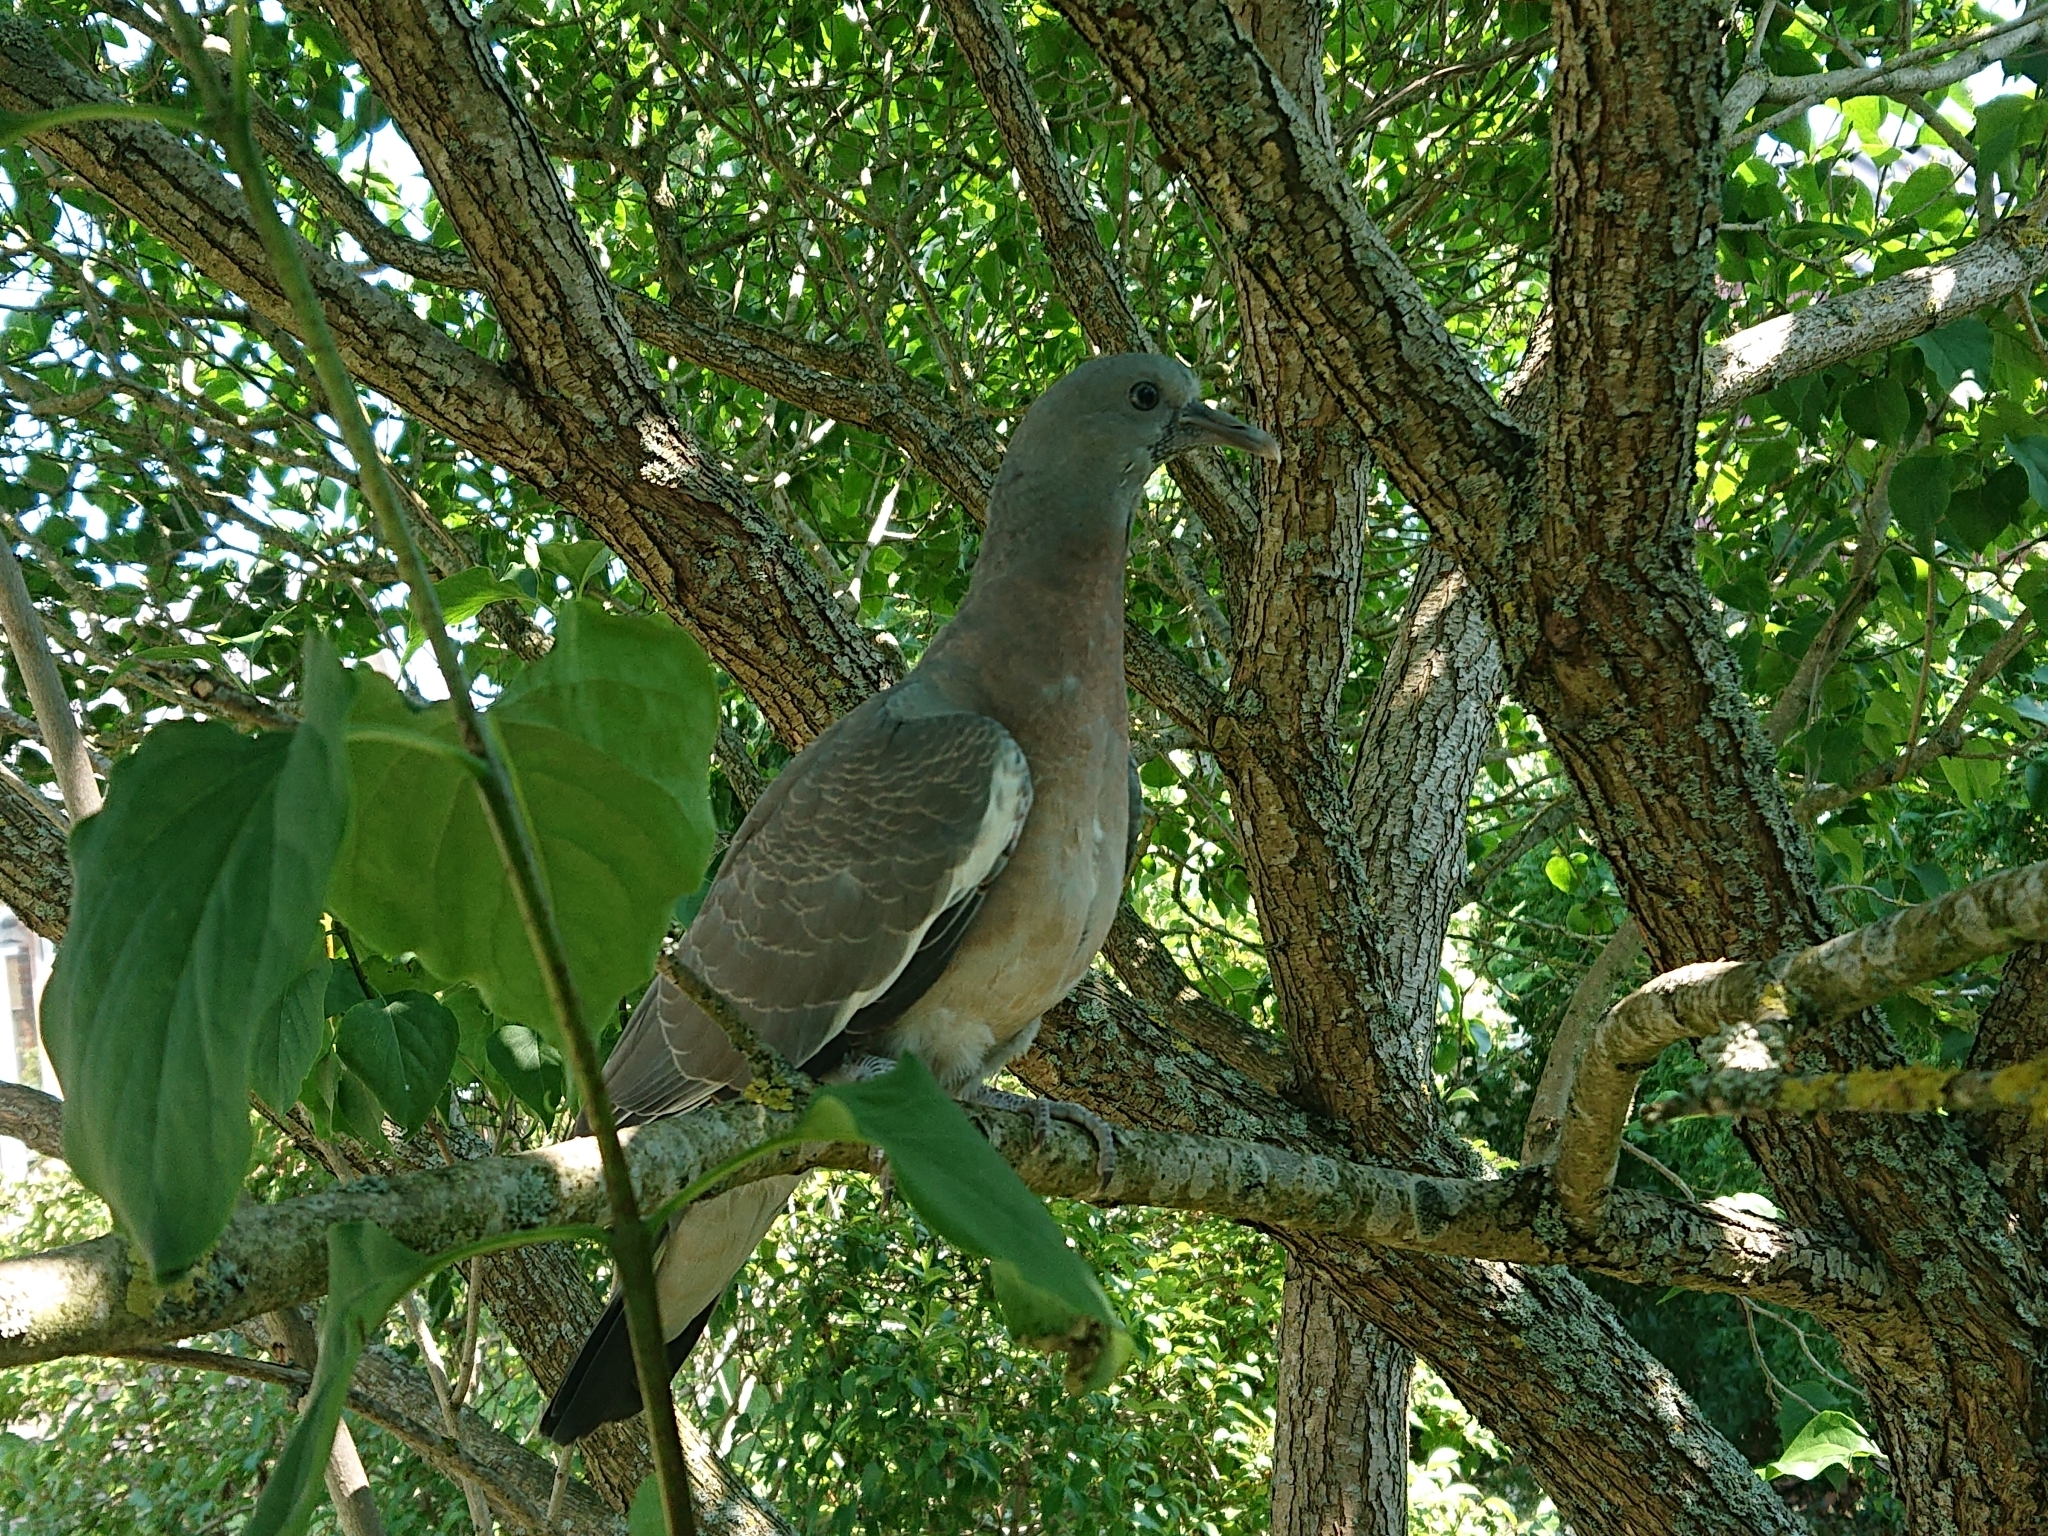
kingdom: Animalia
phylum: Chordata
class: Aves
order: Columbiformes
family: Columbidae
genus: Columba
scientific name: Columba palumbus
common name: Common wood pigeon
